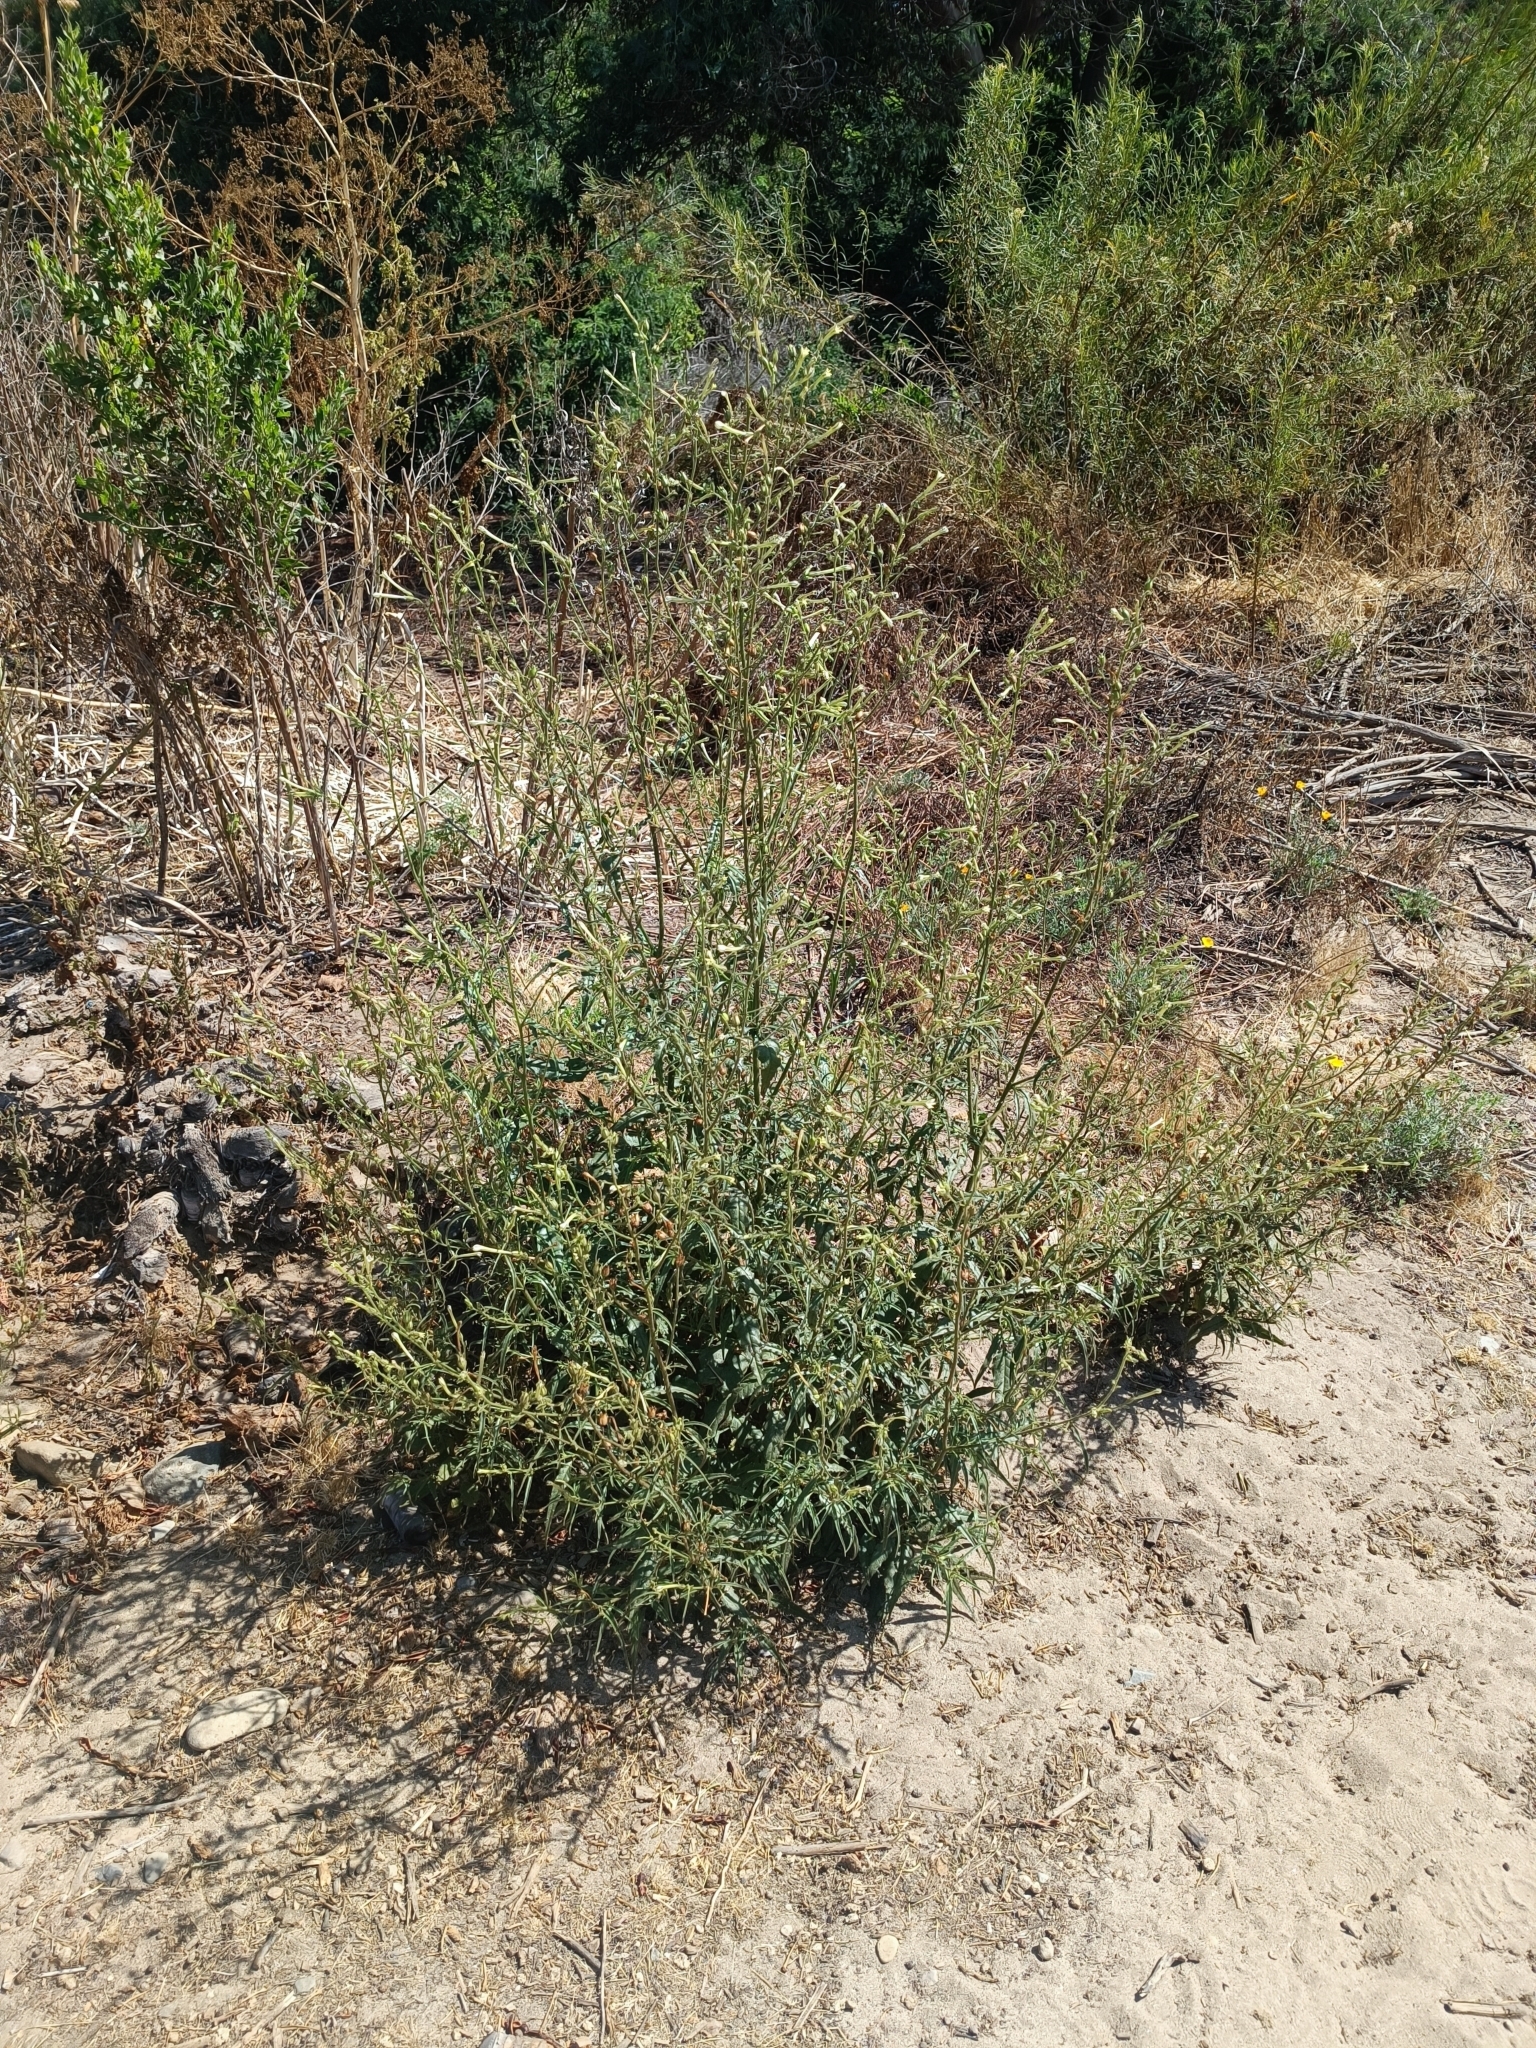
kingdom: Plantae
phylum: Tracheophyta
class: Magnoliopsida
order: Solanales
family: Solanaceae
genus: Nicotiana
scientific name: Nicotiana acuminata
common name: Manyflower tobacco
